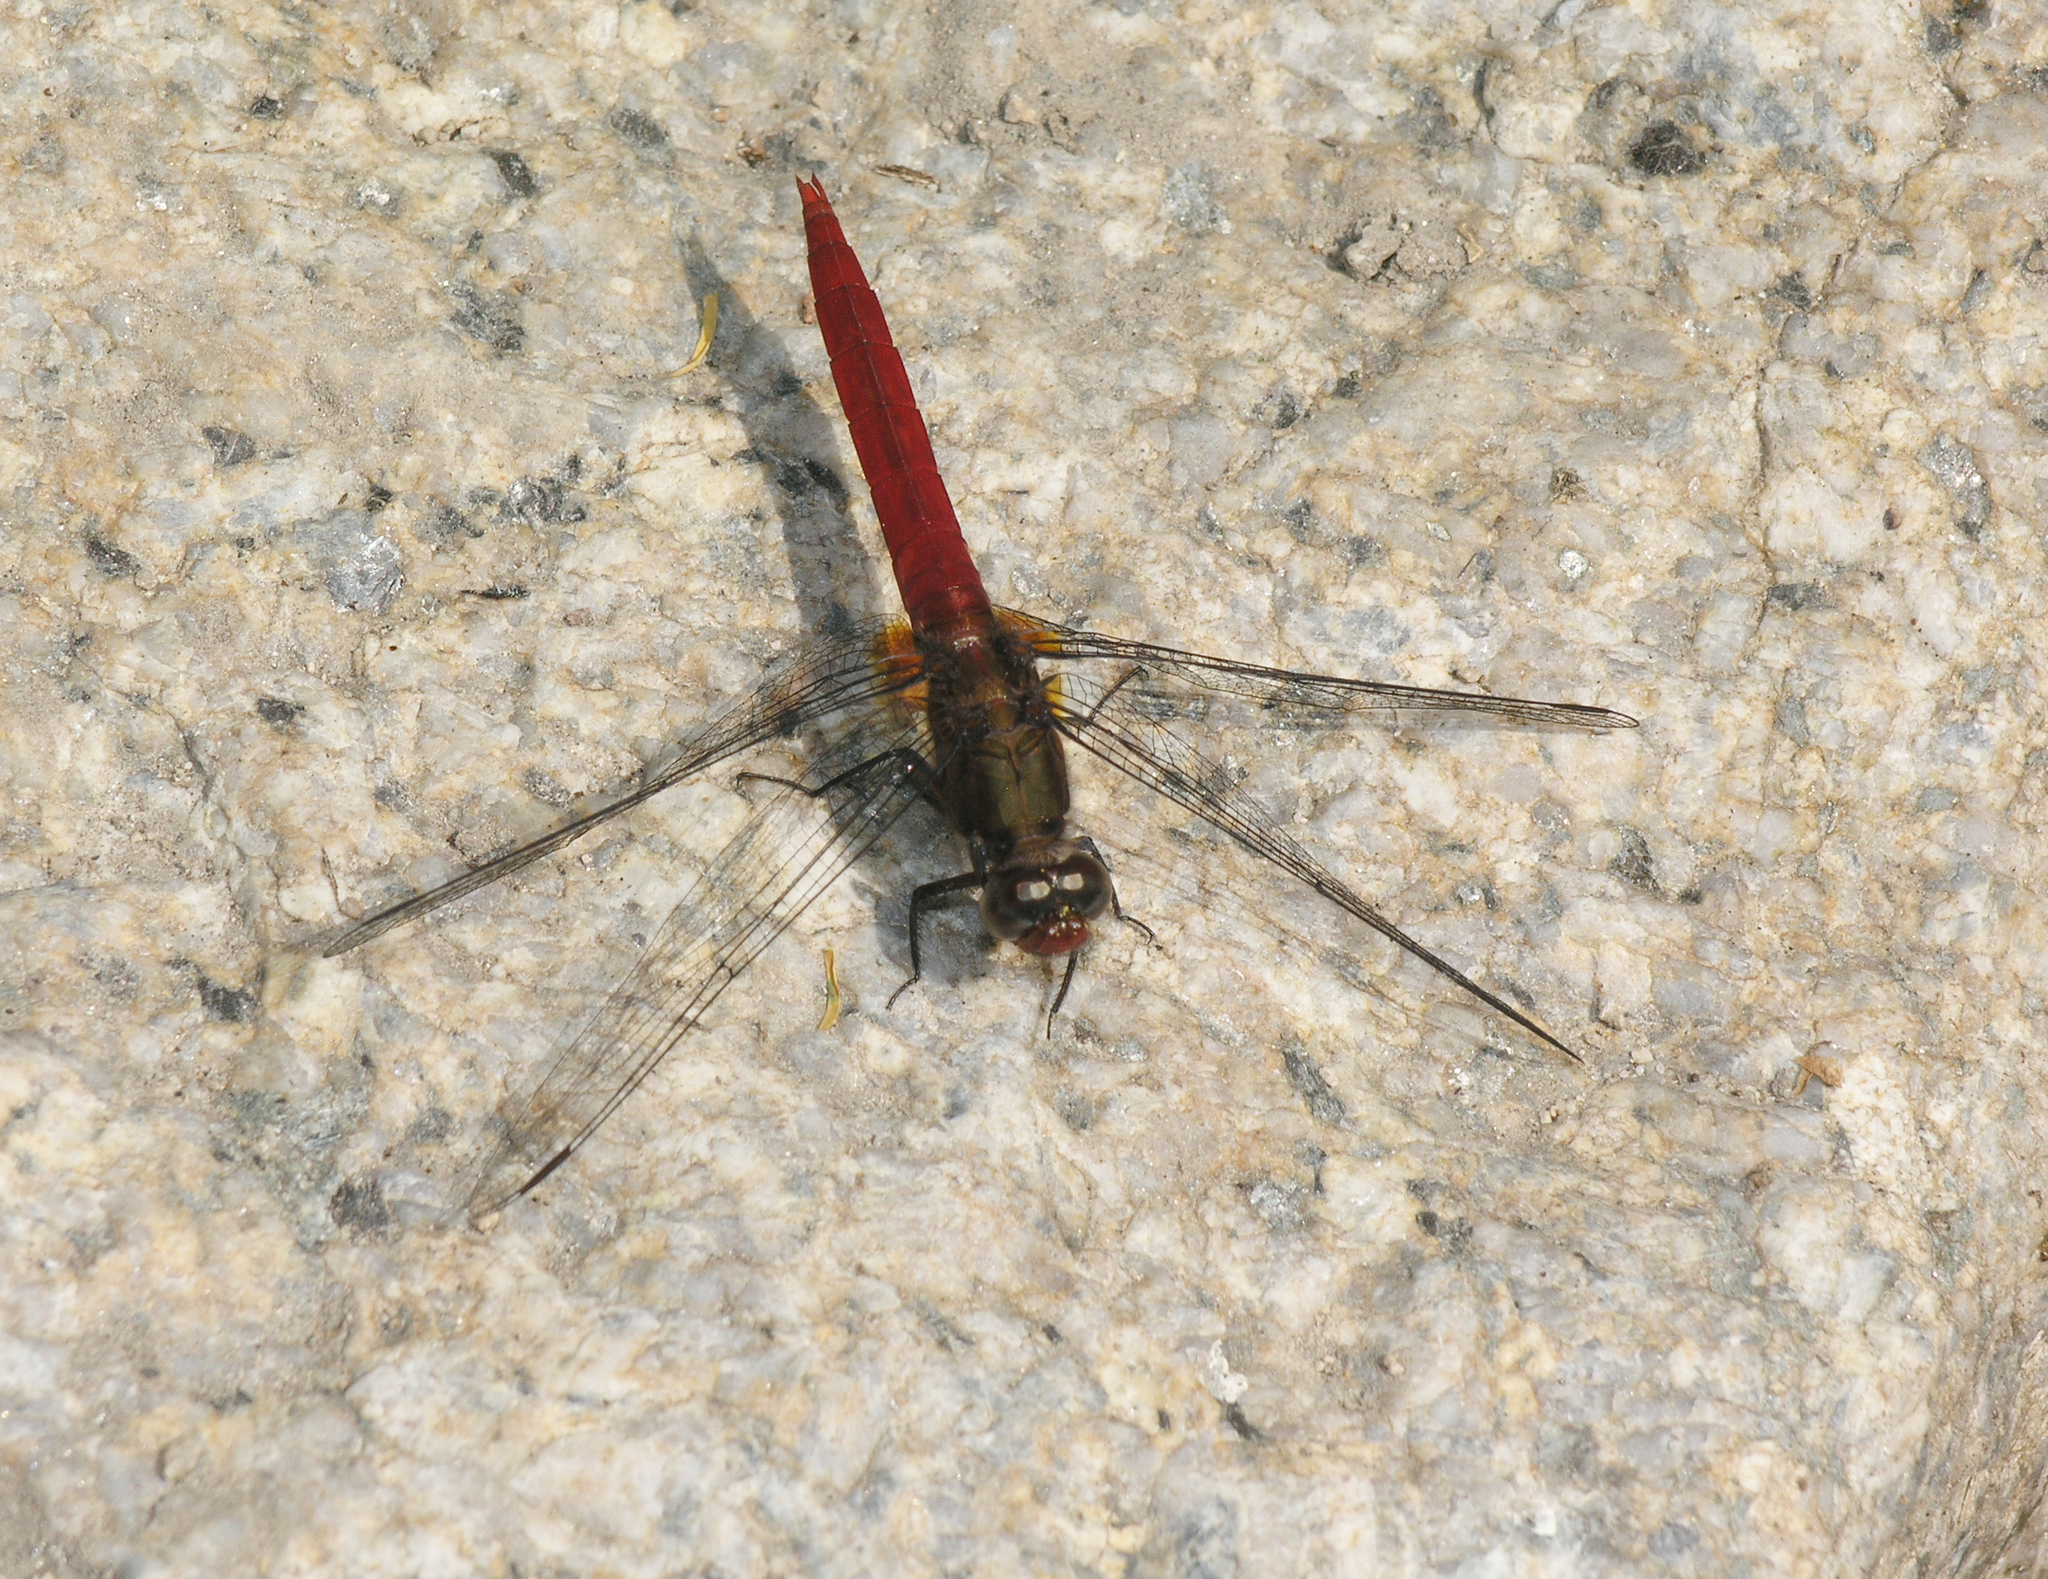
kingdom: Animalia
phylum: Arthropoda
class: Insecta
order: Odonata
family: Libellulidae
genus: Orthetrum
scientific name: Orthetrum chrysis
